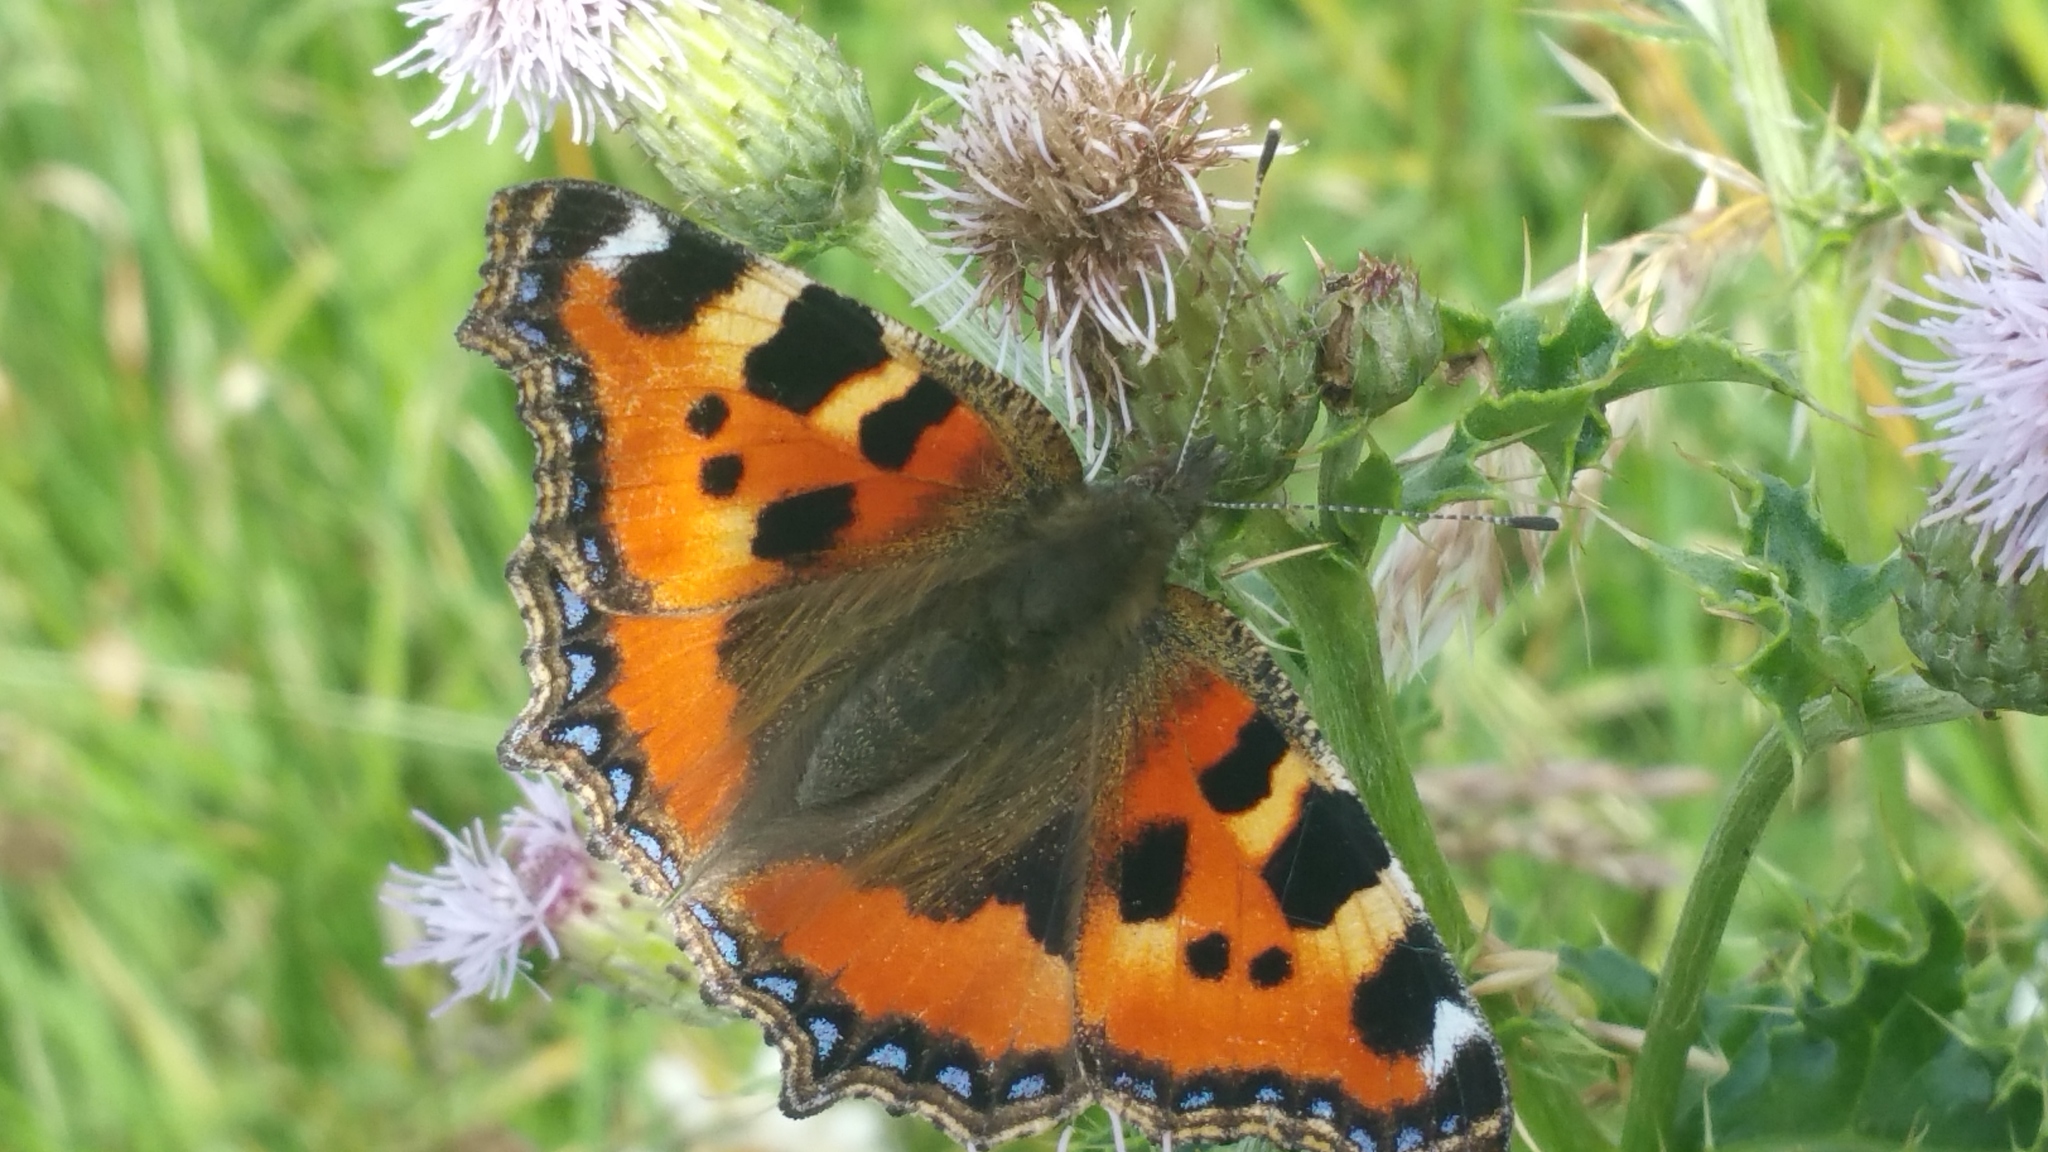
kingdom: Animalia
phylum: Arthropoda
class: Insecta
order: Lepidoptera
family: Nymphalidae
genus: Aglais
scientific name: Aglais urticae
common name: Small tortoiseshell
